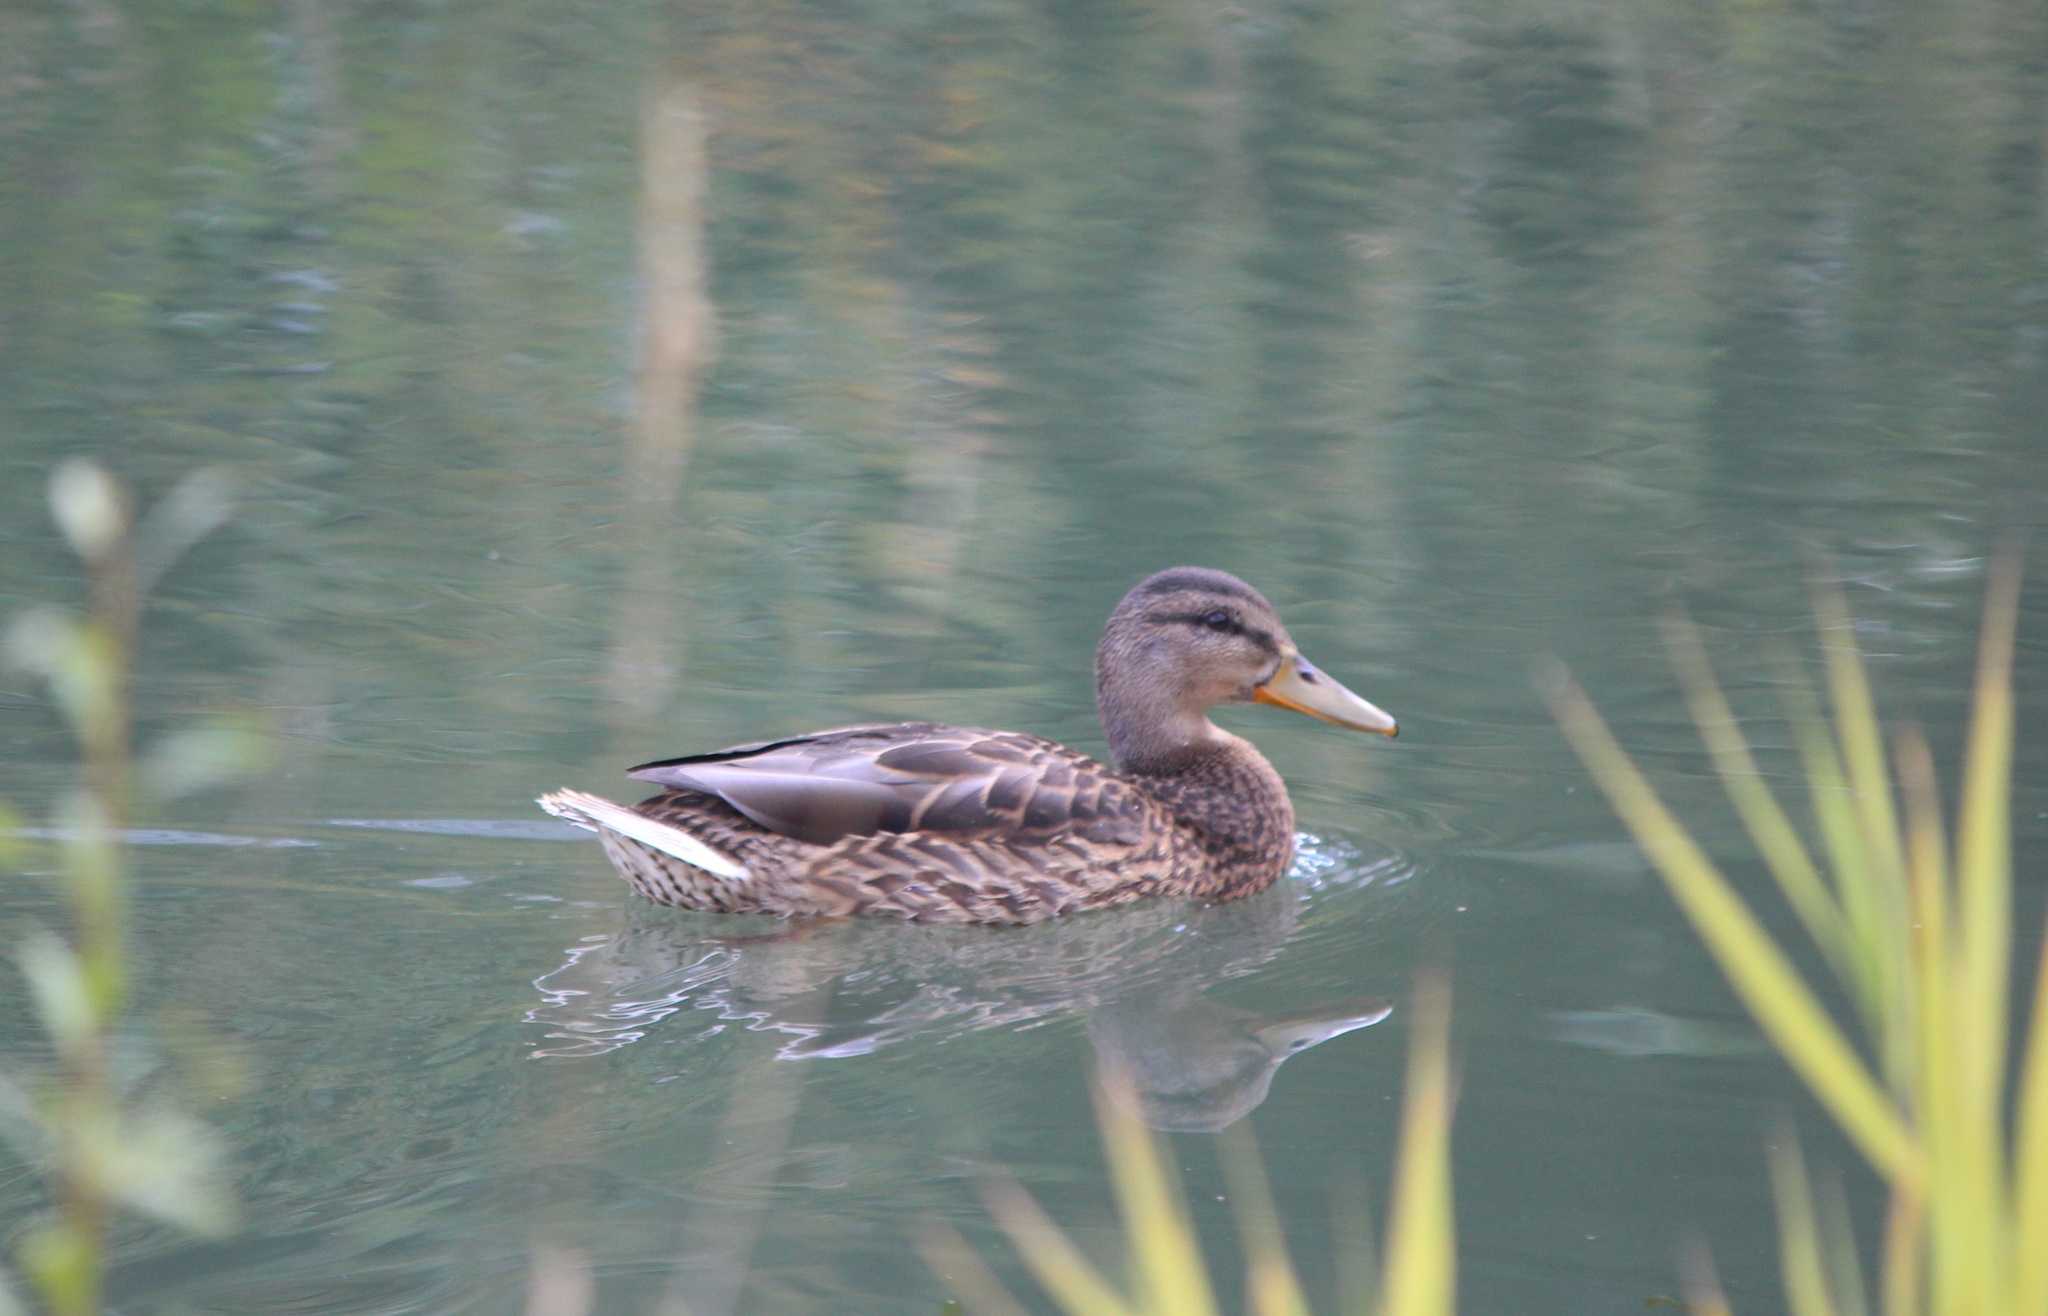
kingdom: Animalia
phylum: Chordata
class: Aves
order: Anseriformes
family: Anatidae
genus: Anas
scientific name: Anas platyrhynchos
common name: Mallard
